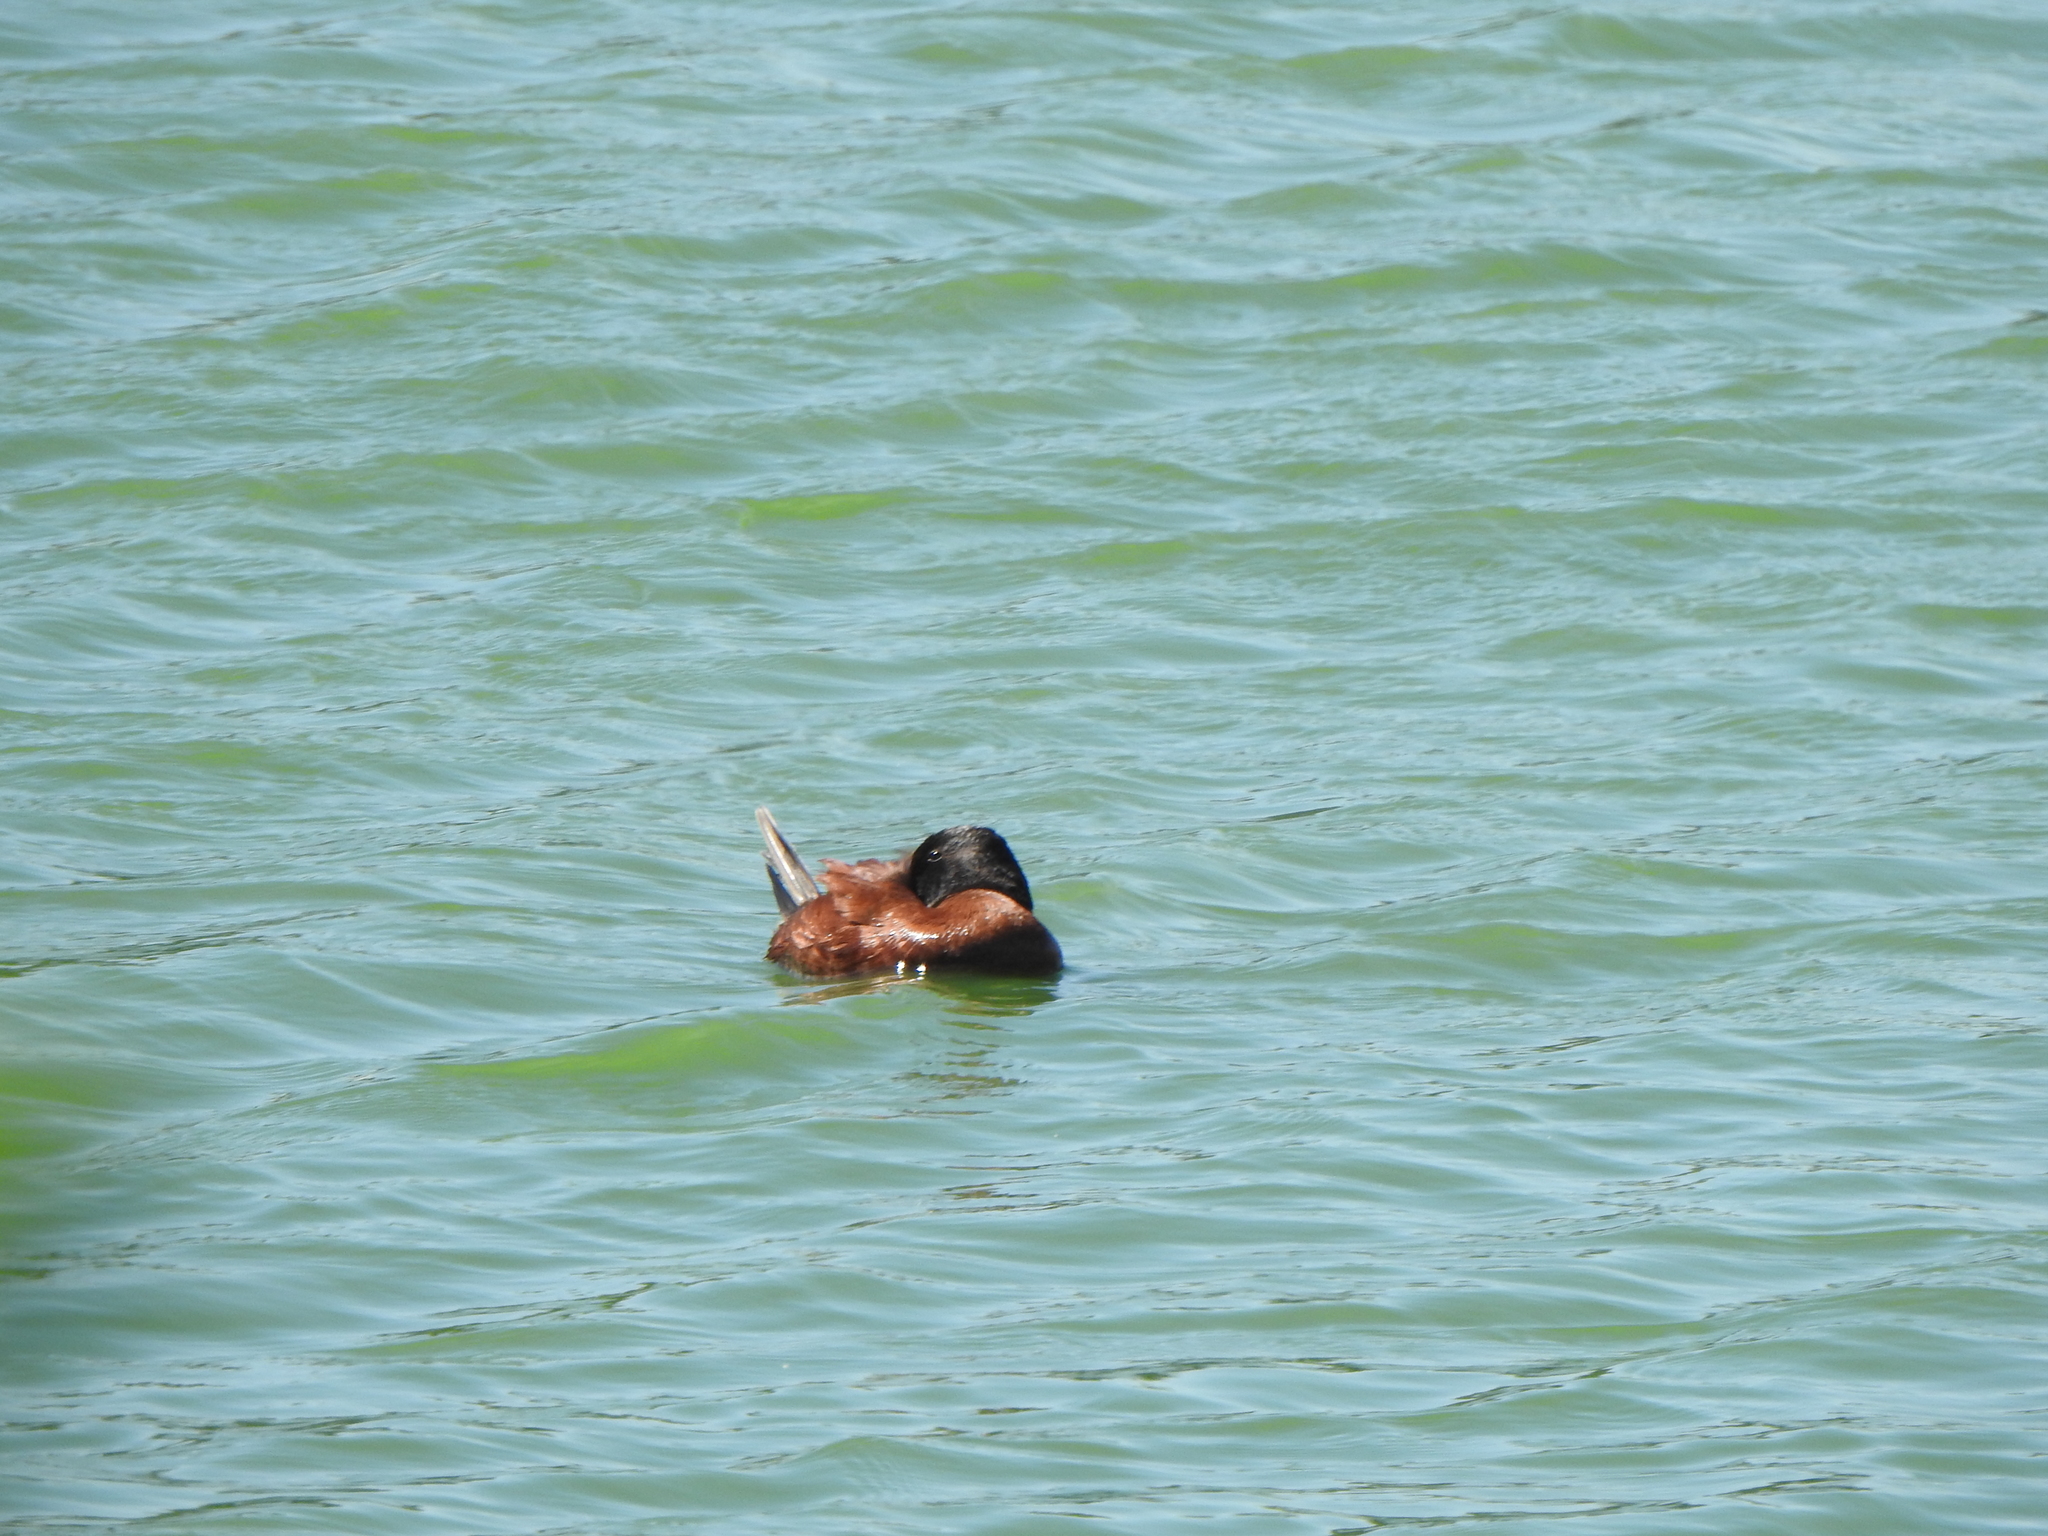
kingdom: Animalia
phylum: Chordata
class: Aves
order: Anseriformes
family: Anatidae
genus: Oxyura
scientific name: Oxyura vittata
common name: Lake duck
